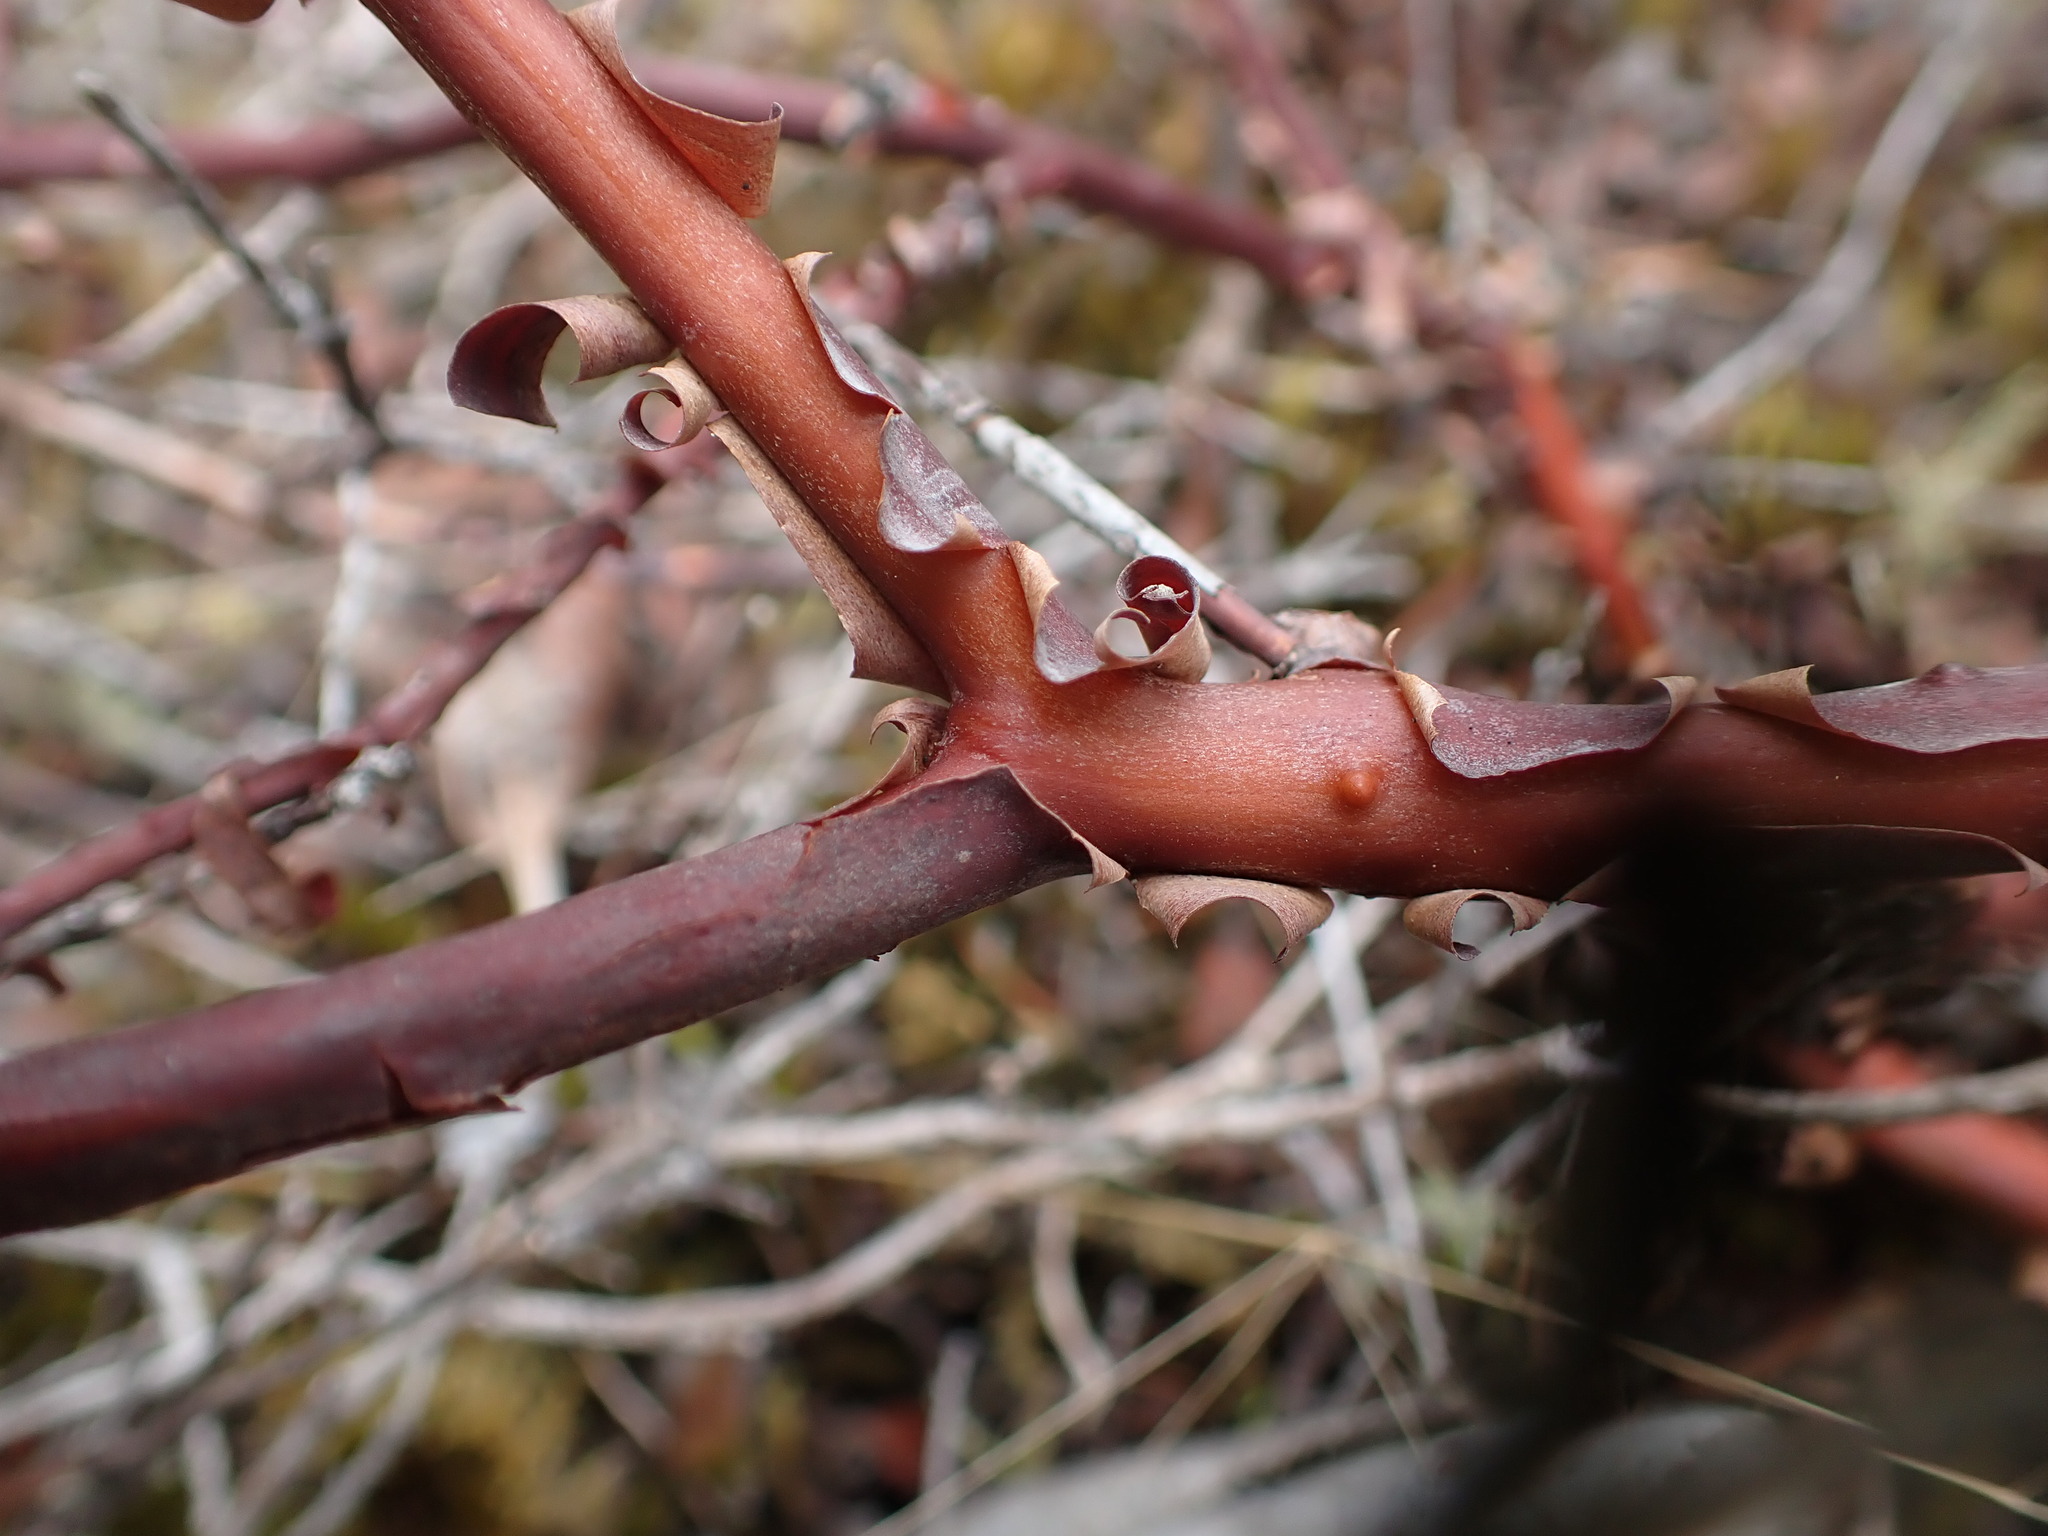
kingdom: Plantae
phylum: Tracheophyta
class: Magnoliopsida
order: Ericales
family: Ericaceae
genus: Arctostaphylos
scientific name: Arctostaphylos uva-ursi
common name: Bearberry
